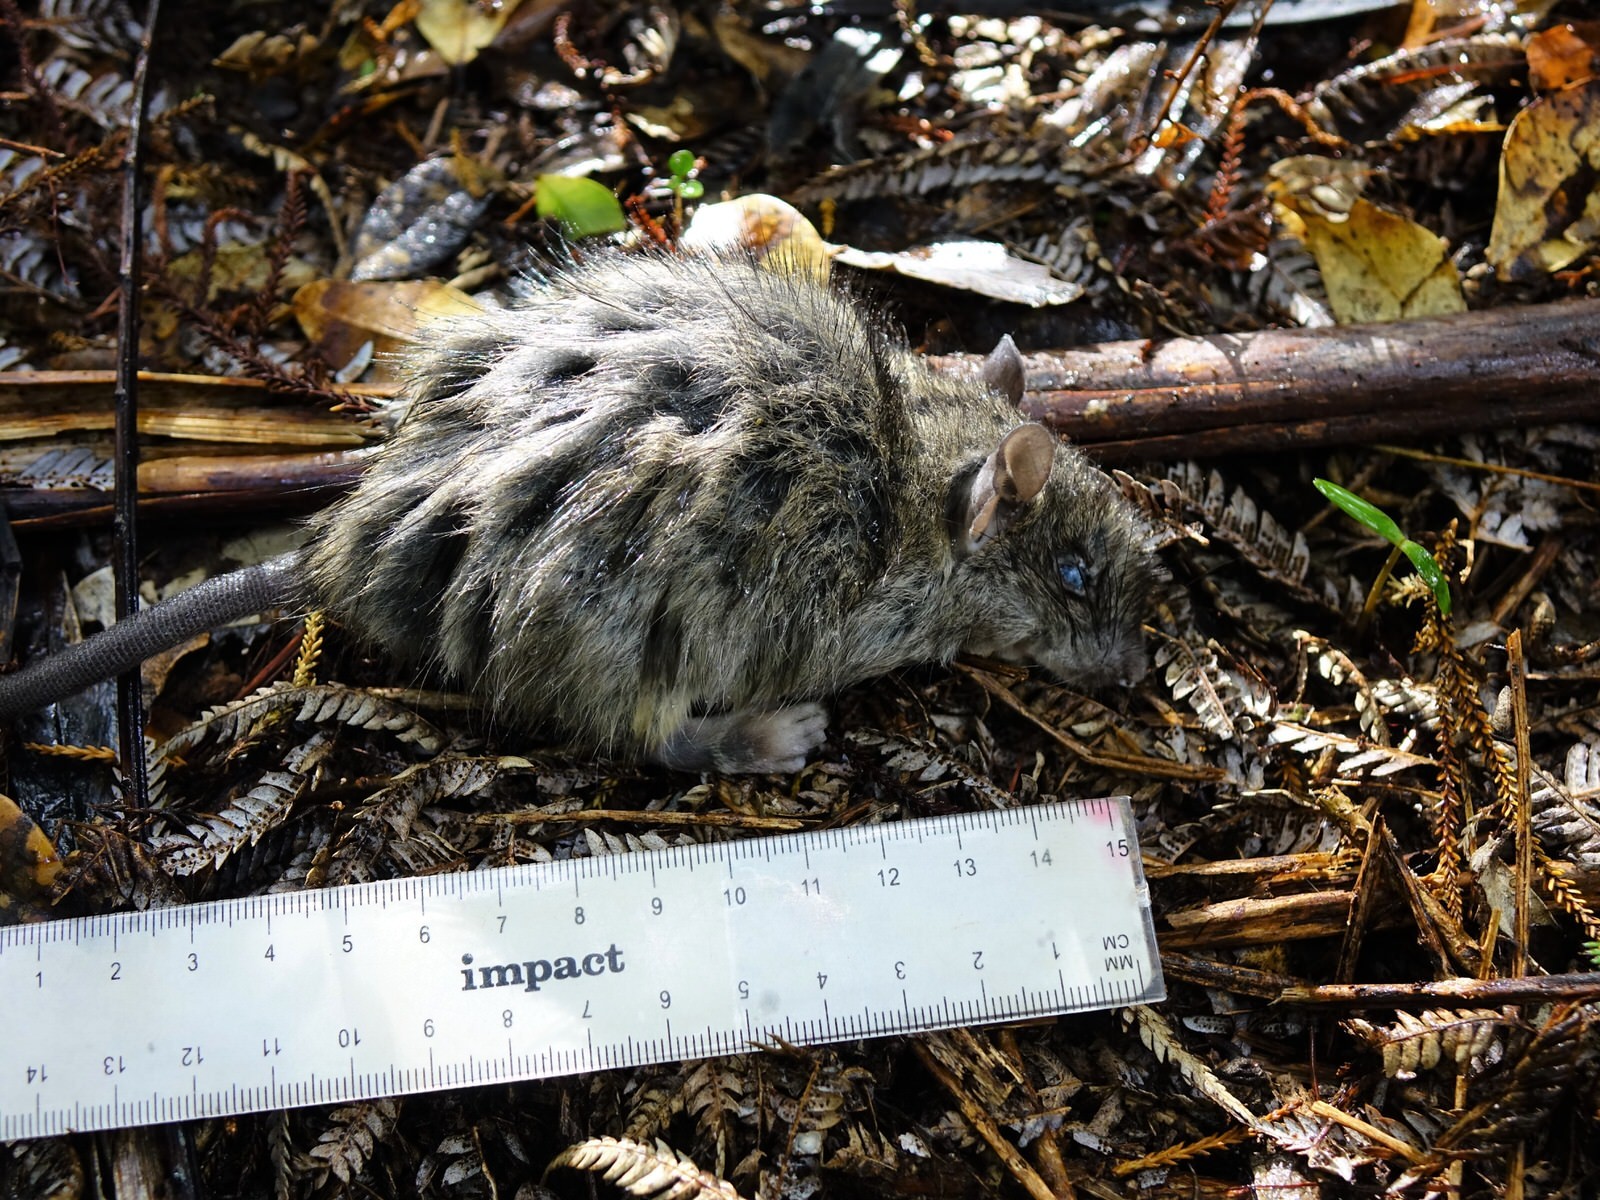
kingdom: Animalia
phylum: Chordata
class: Mammalia
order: Rodentia
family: Muridae
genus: Rattus
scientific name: Rattus rattus
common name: Black rat
